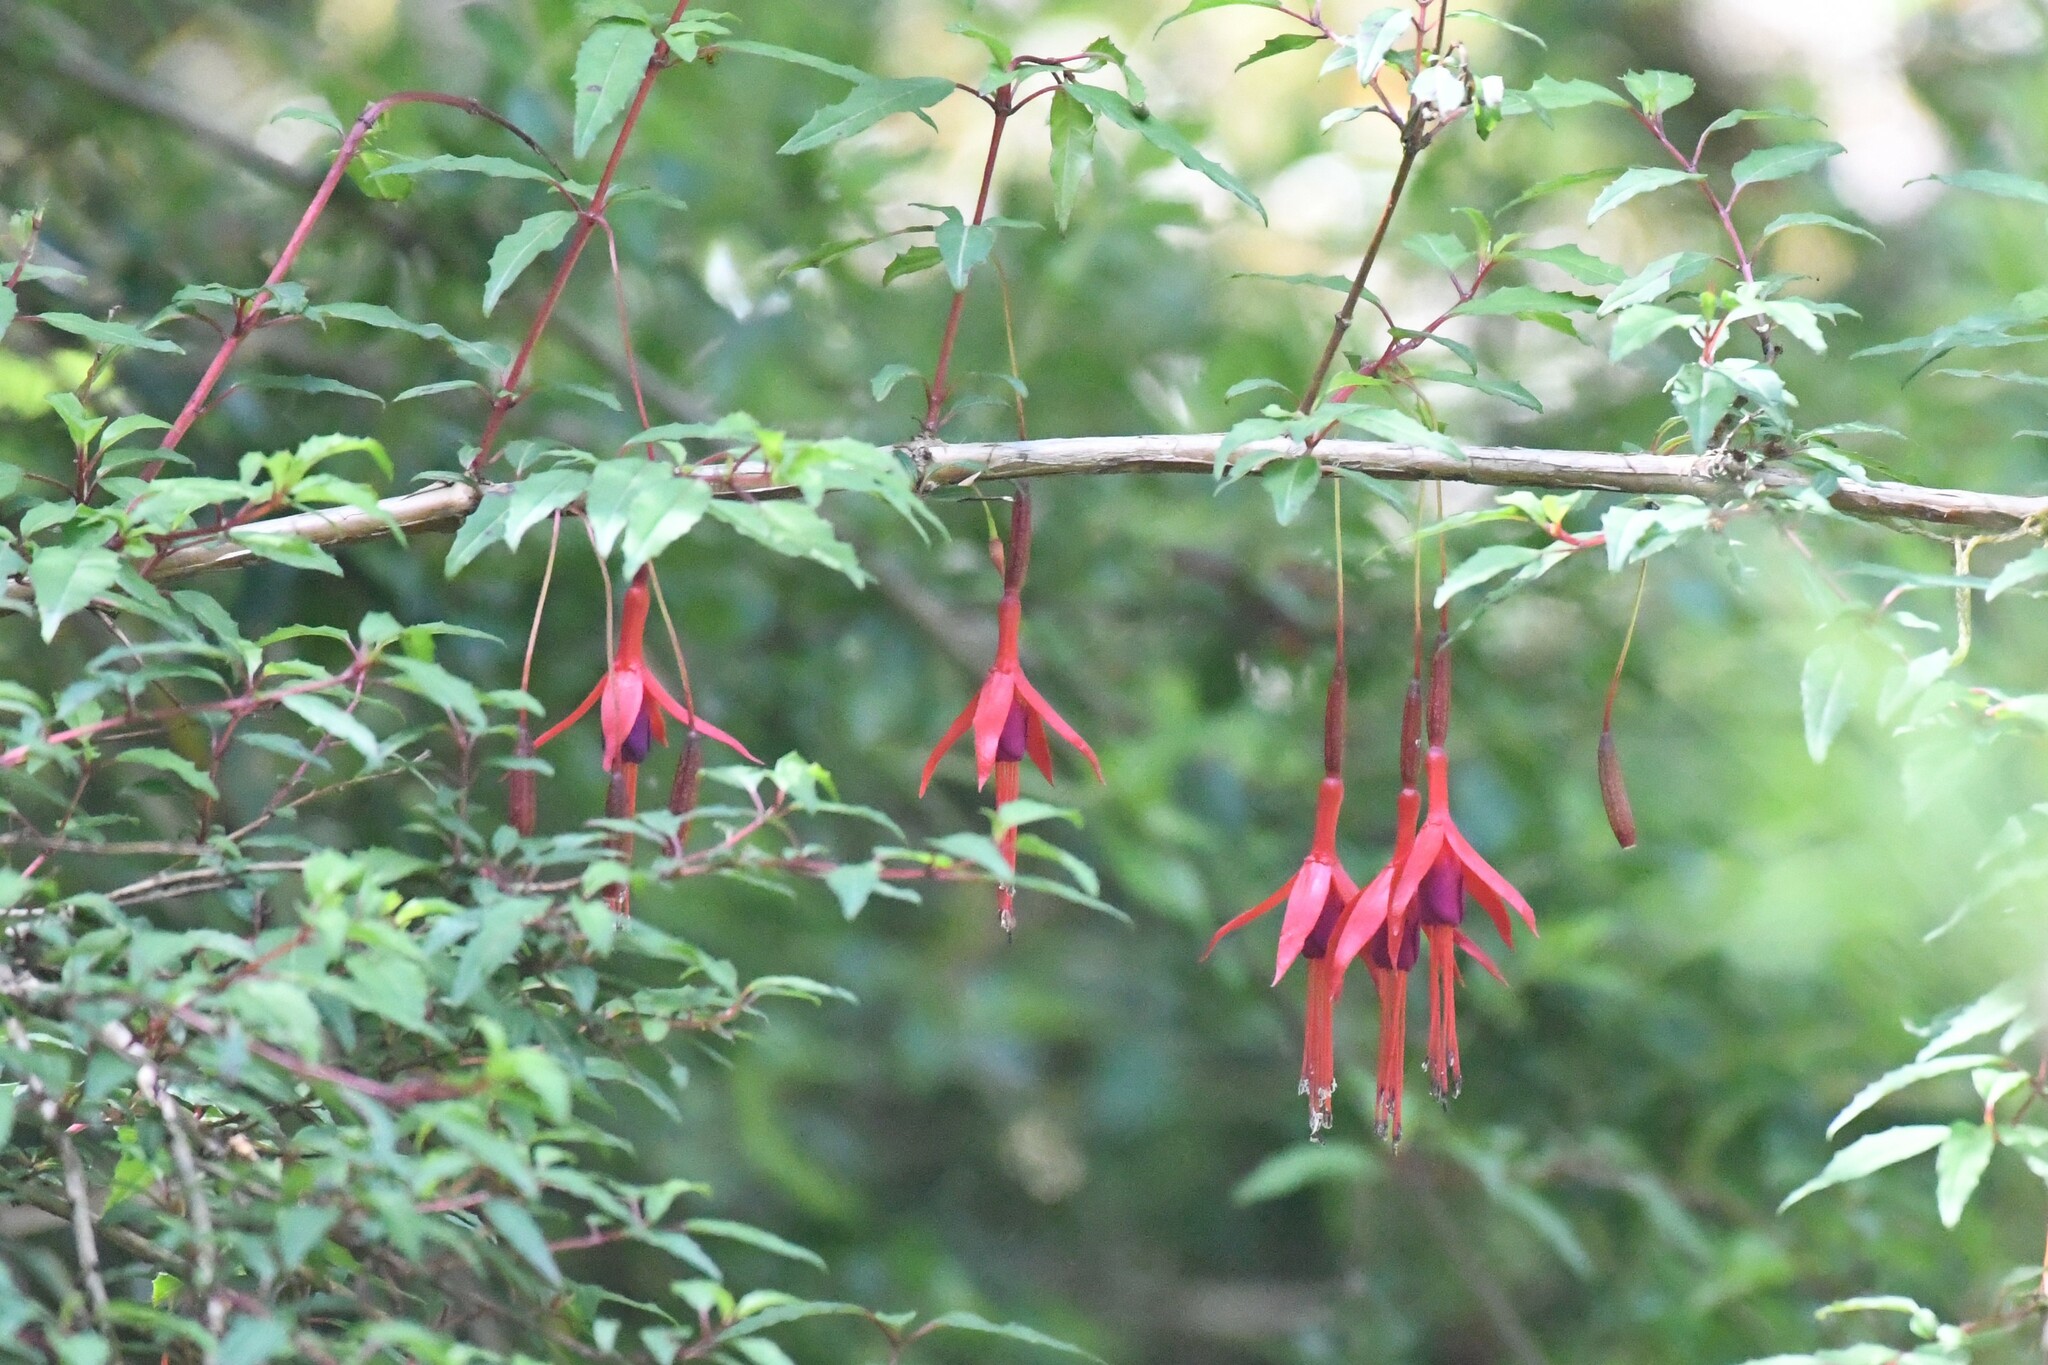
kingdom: Plantae
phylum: Tracheophyta
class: Magnoliopsida
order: Myrtales
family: Onagraceae
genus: Fuchsia
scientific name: Fuchsia magellanica
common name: Hardy fuchsia
